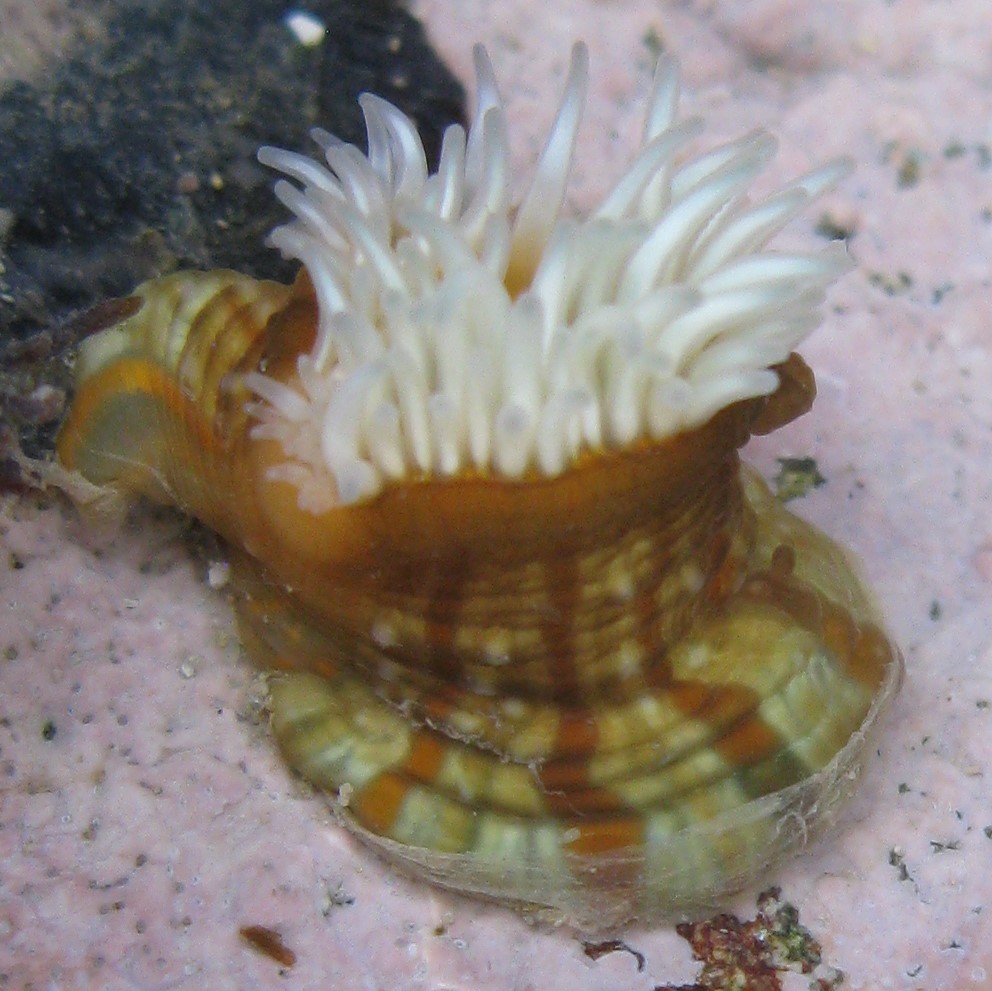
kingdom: Animalia
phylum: Cnidaria
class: Anthozoa
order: Actiniaria
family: Sagartiidae
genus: Anthothoe
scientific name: Anthothoe albocincta
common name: Orange striped anemone
